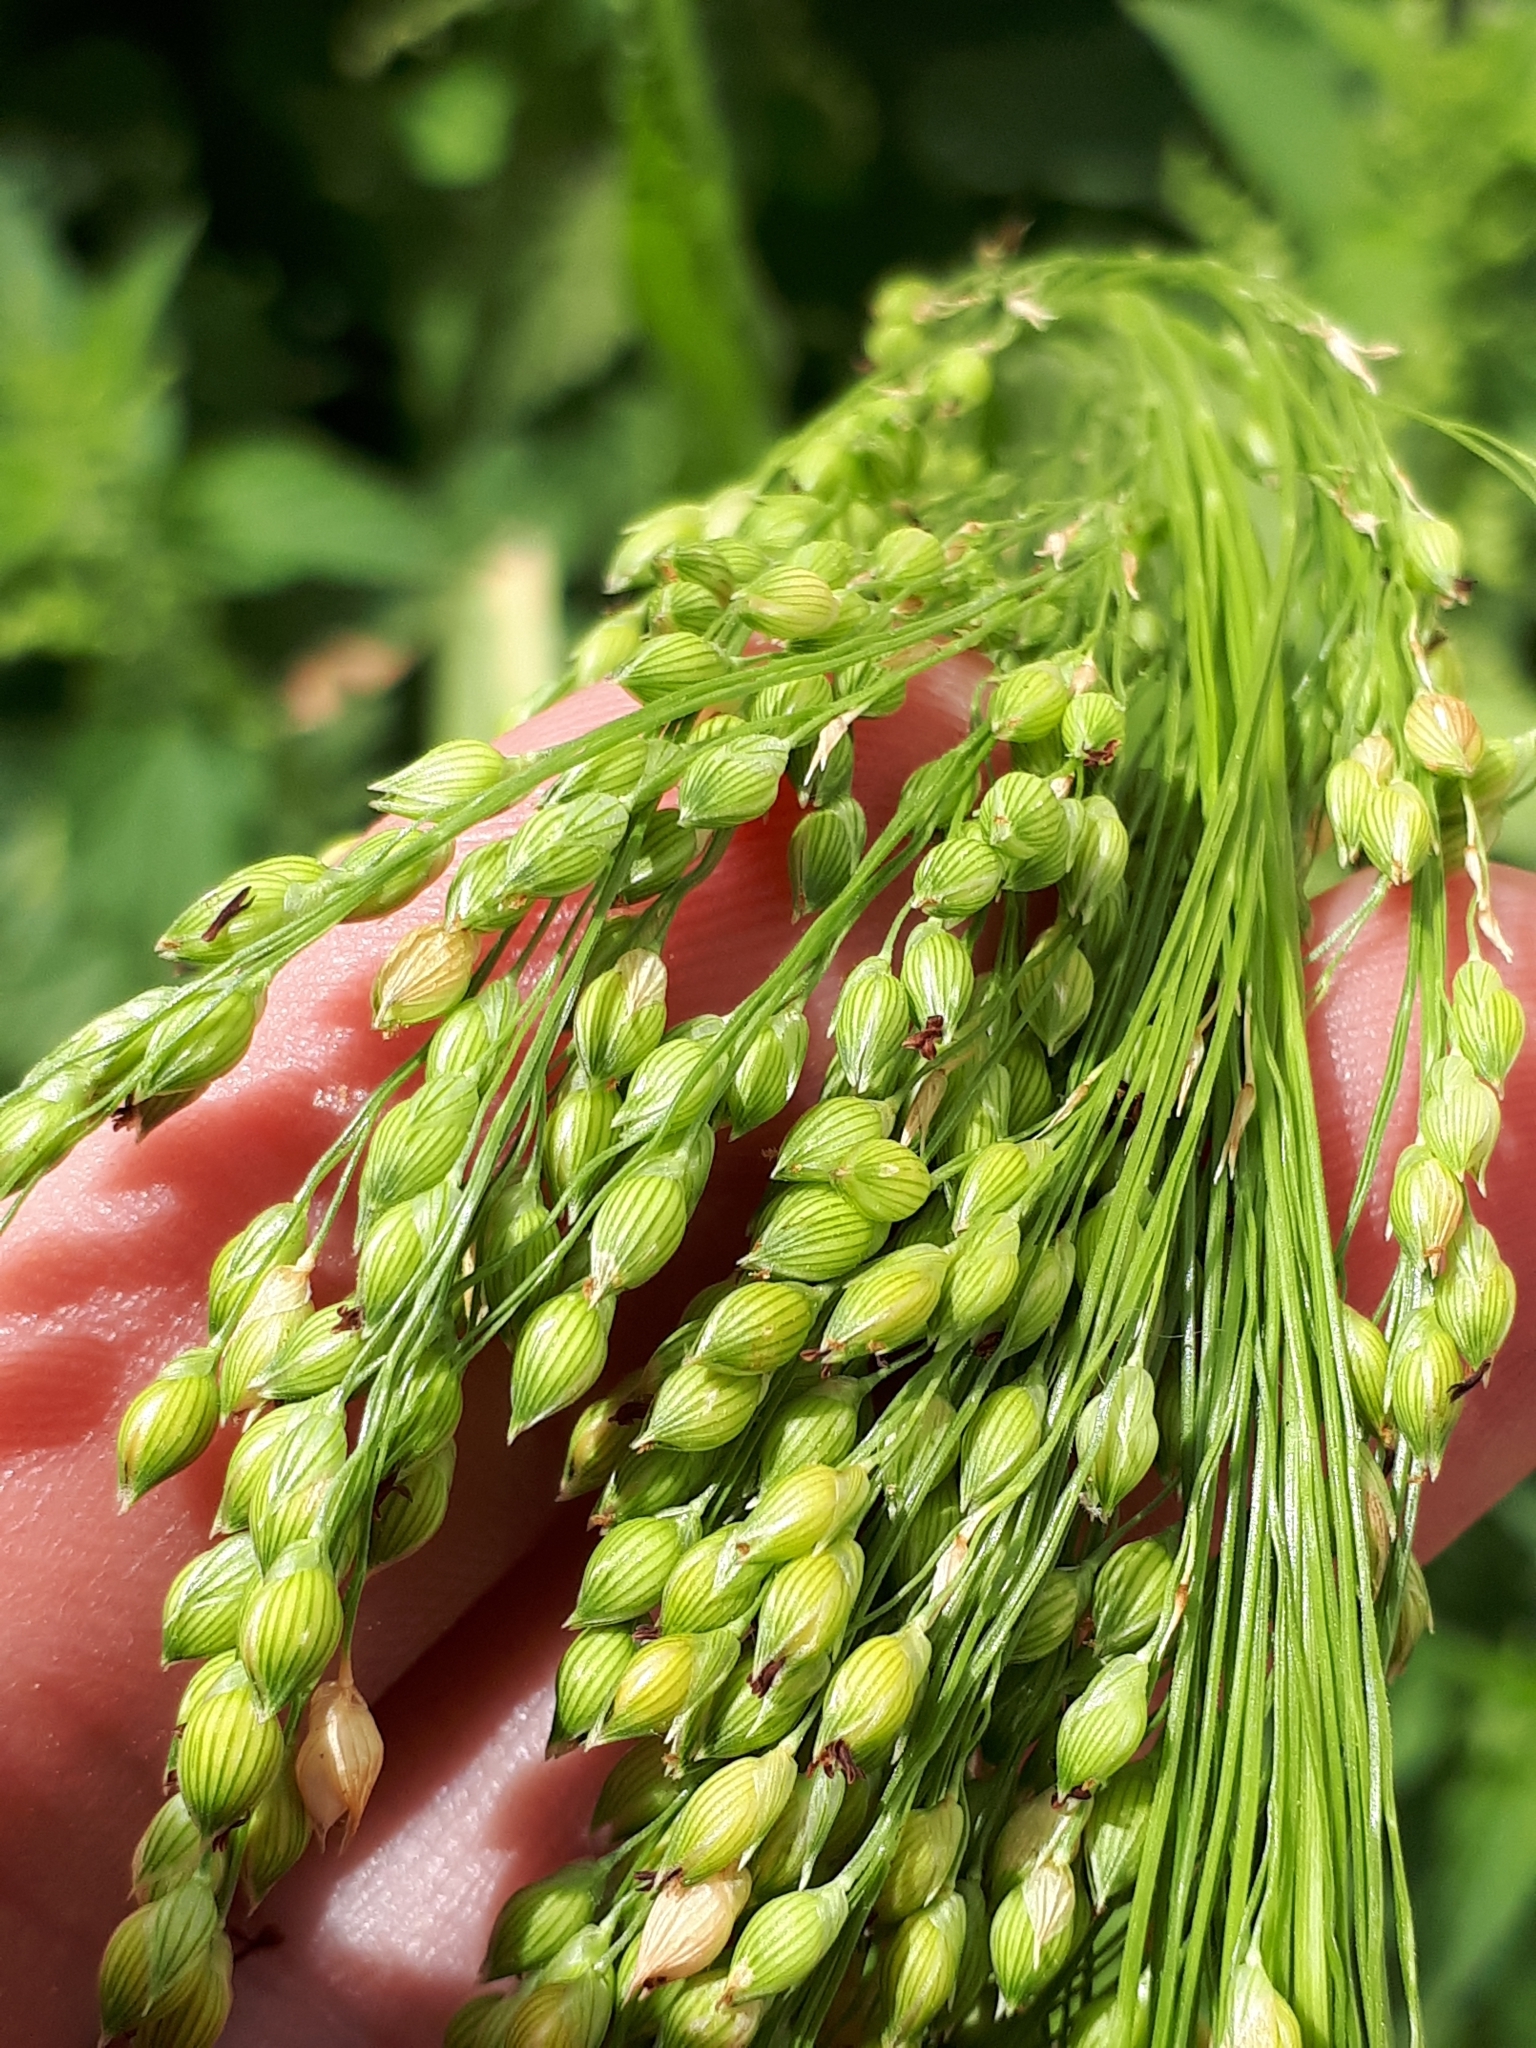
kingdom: Plantae
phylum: Tracheophyta
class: Liliopsida
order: Poales
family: Poaceae
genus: Panicum
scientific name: Panicum miliaceum
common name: Common millet
